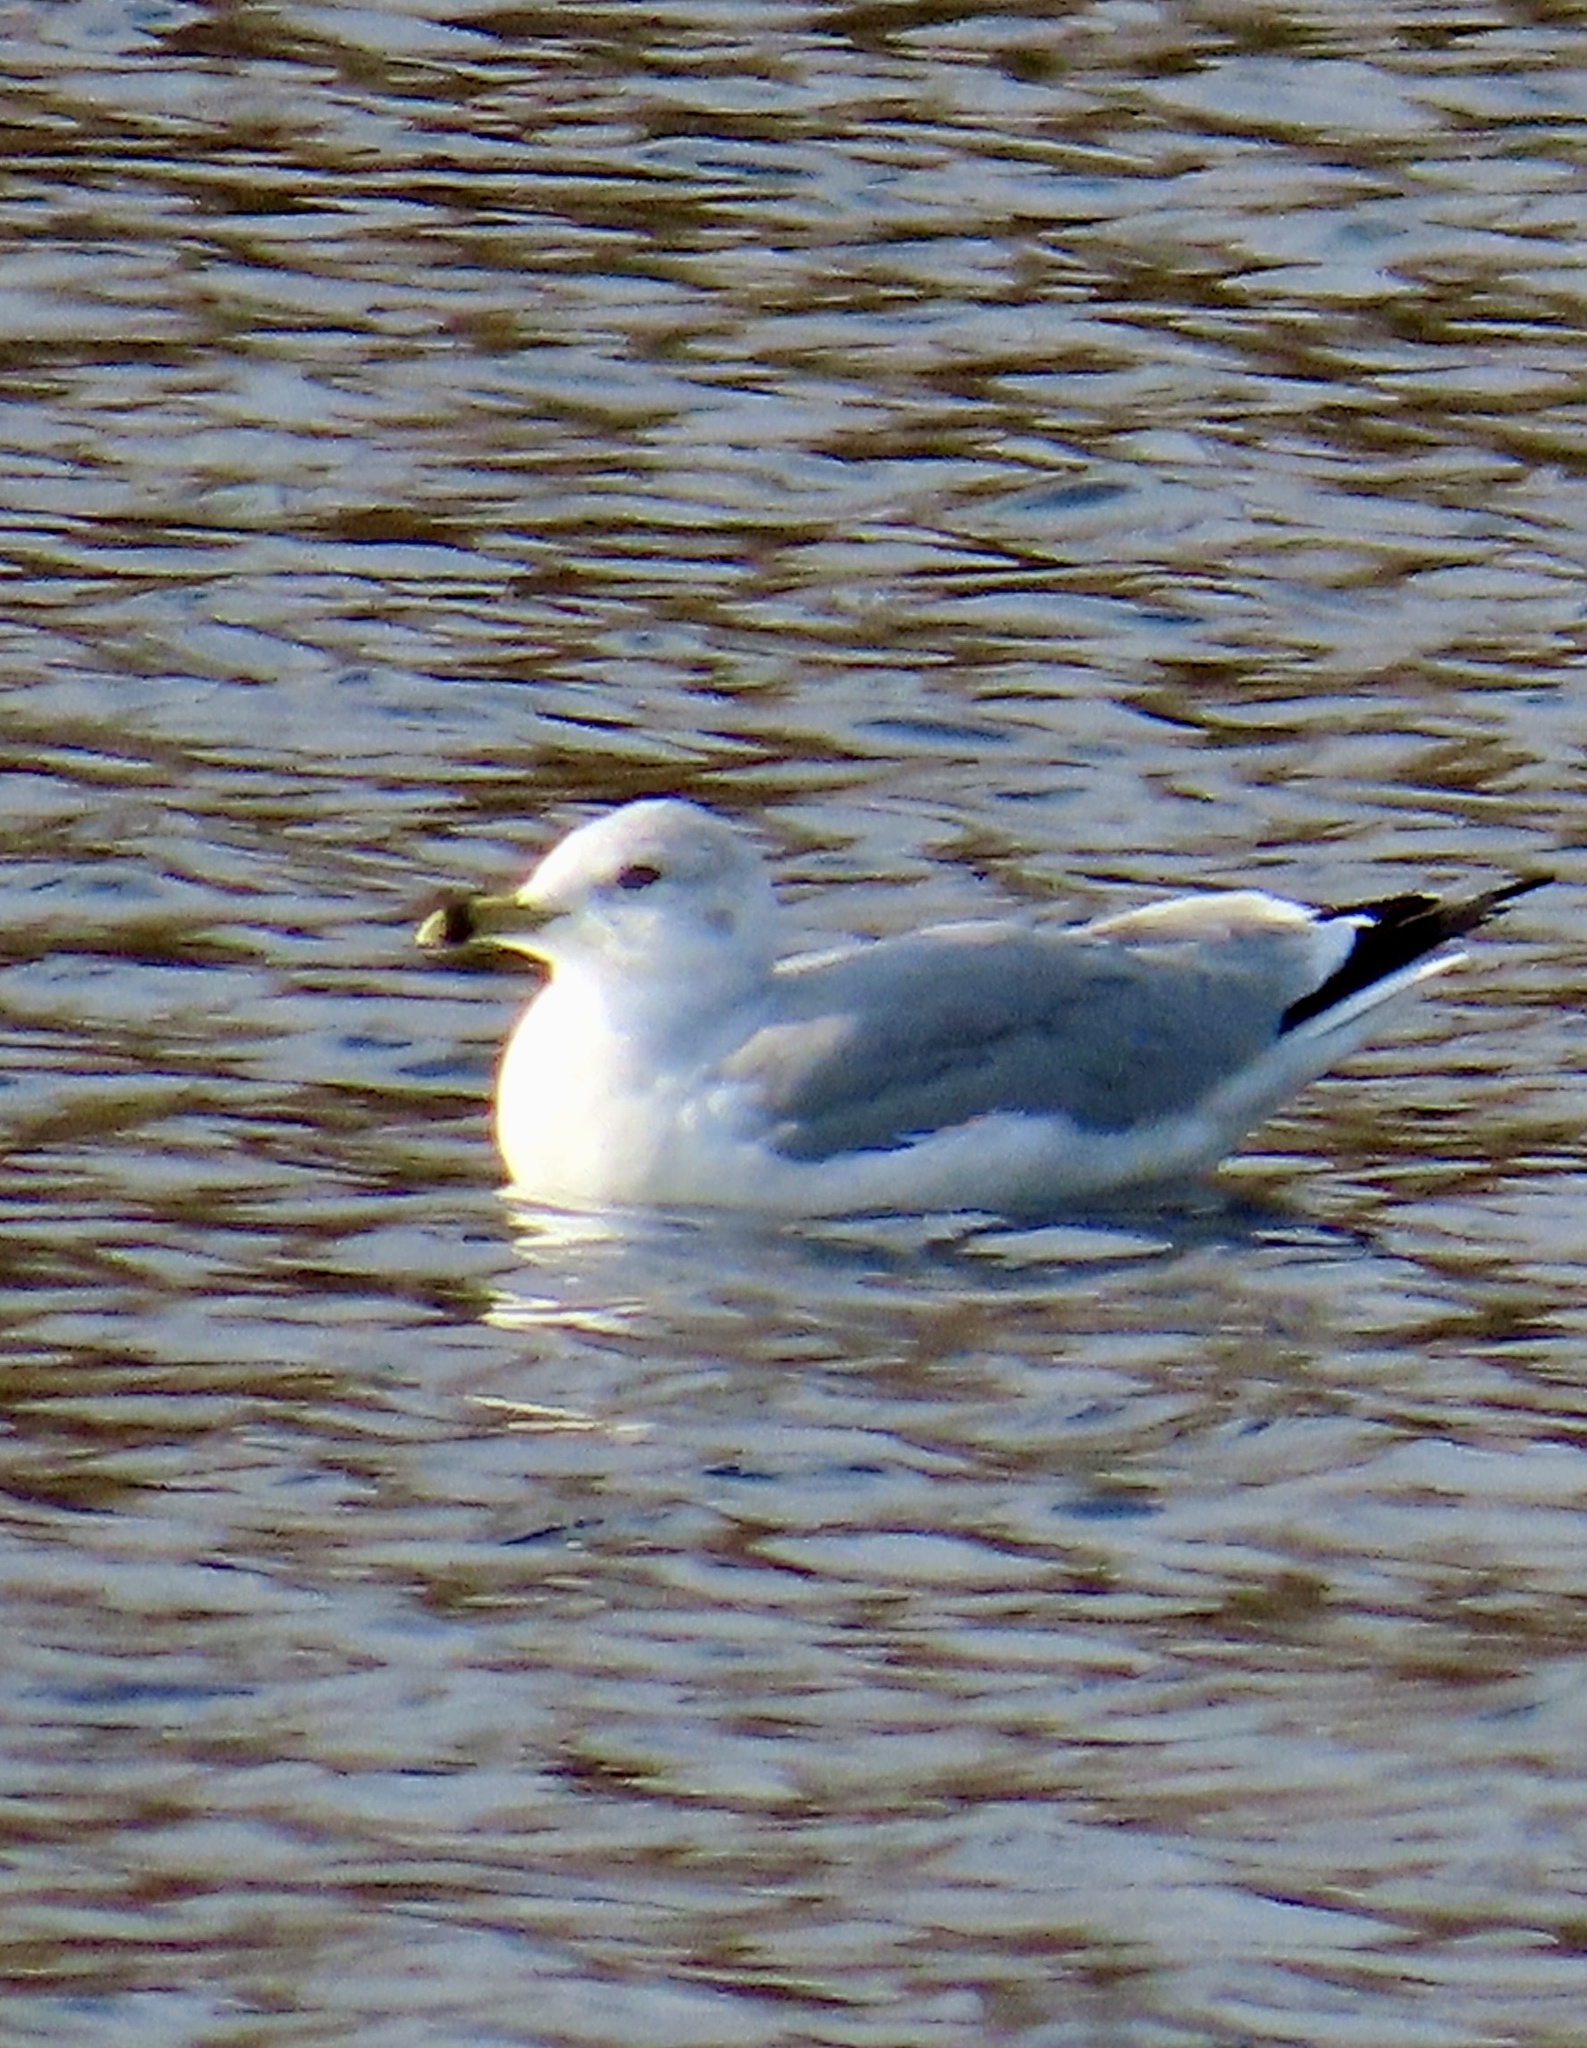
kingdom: Animalia
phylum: Chordata
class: Aves
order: Charadriiformes
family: Laridae
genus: Larus
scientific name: Larus delawarensis
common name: Ring-billed gull
